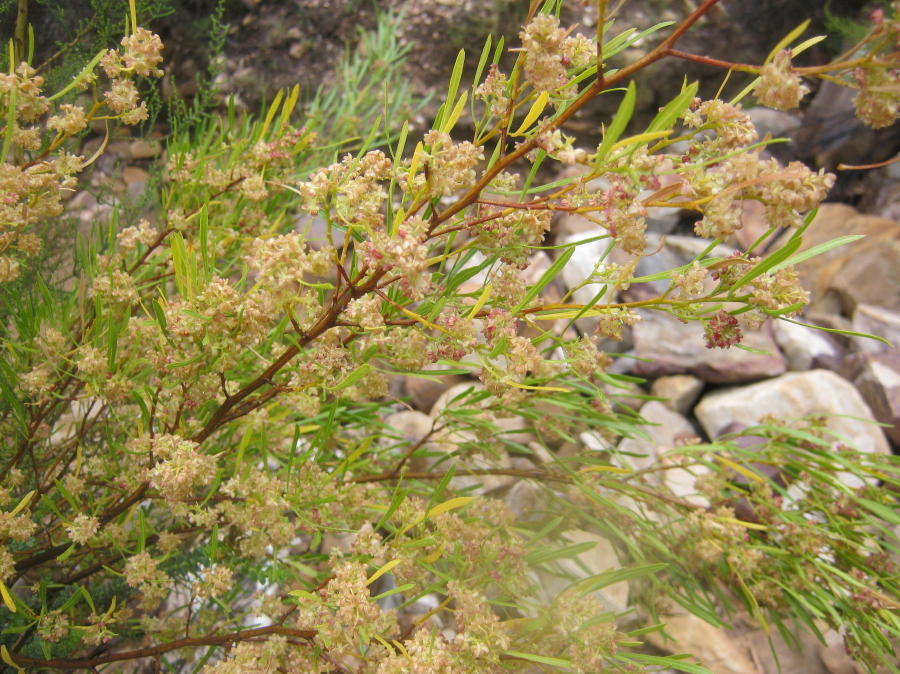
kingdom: Plantae
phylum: Tracheophyta
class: Magnoliopsida
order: Sapindales
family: Sapindaceae
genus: Dodonaea
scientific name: Dodonaea viscosa
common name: Hopbush
